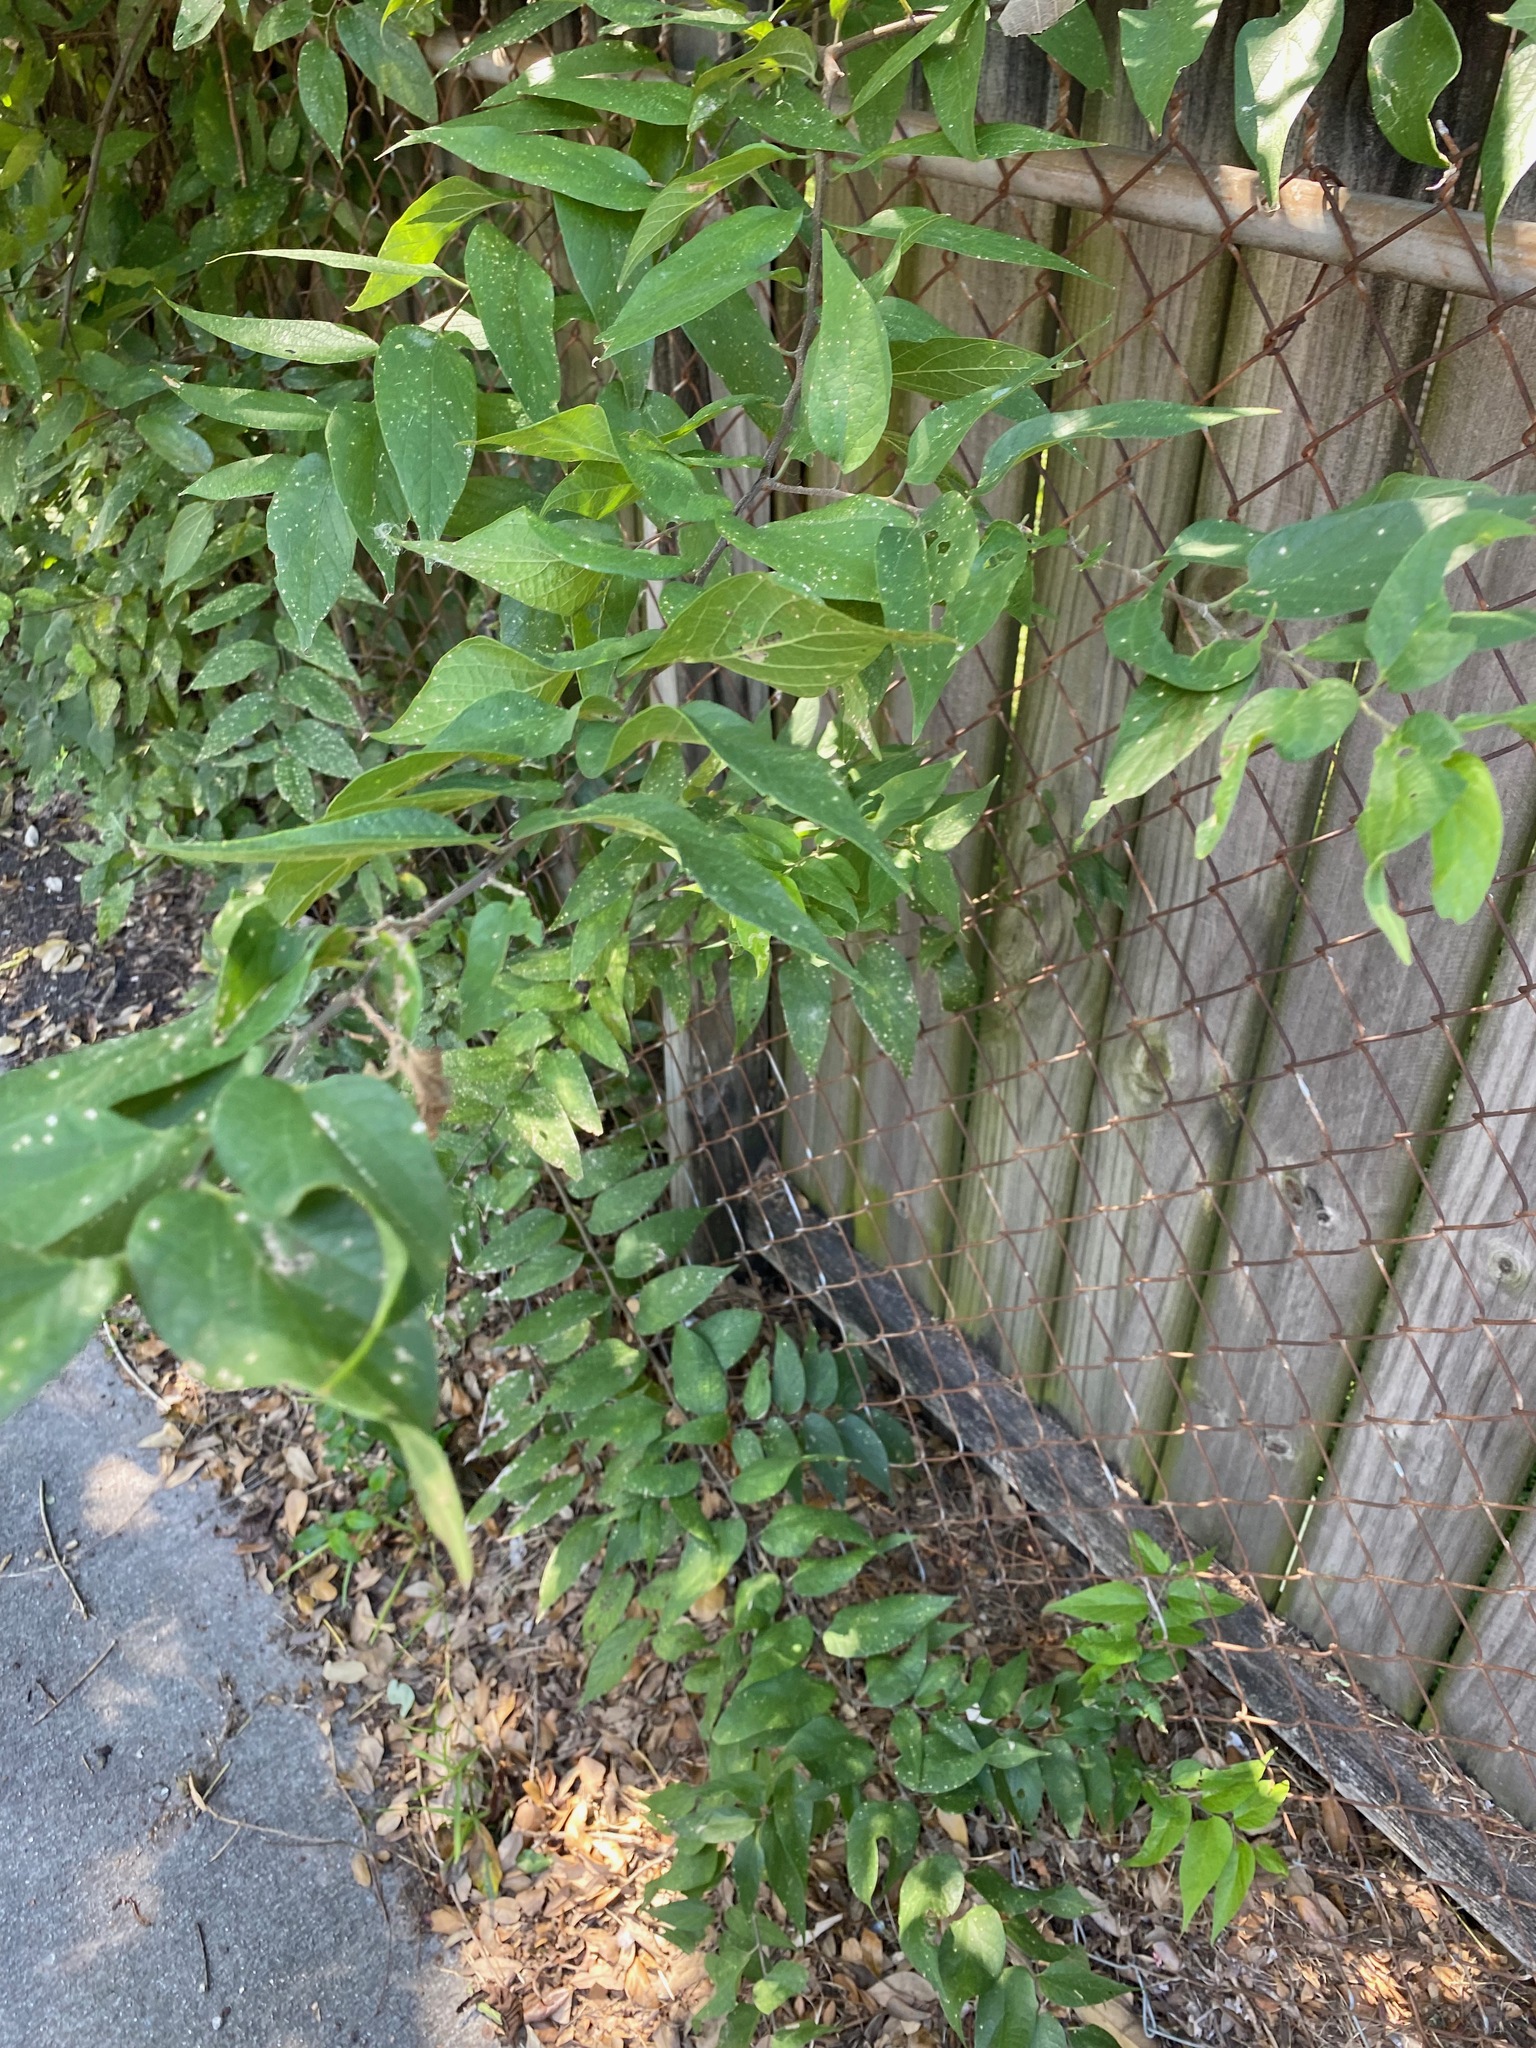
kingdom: Plantae
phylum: Tracheophyta
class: Magnoliopsida
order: Rosales
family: Cannabaceae
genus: Celtis
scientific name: Celtis laevigata
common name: Sugarberry
